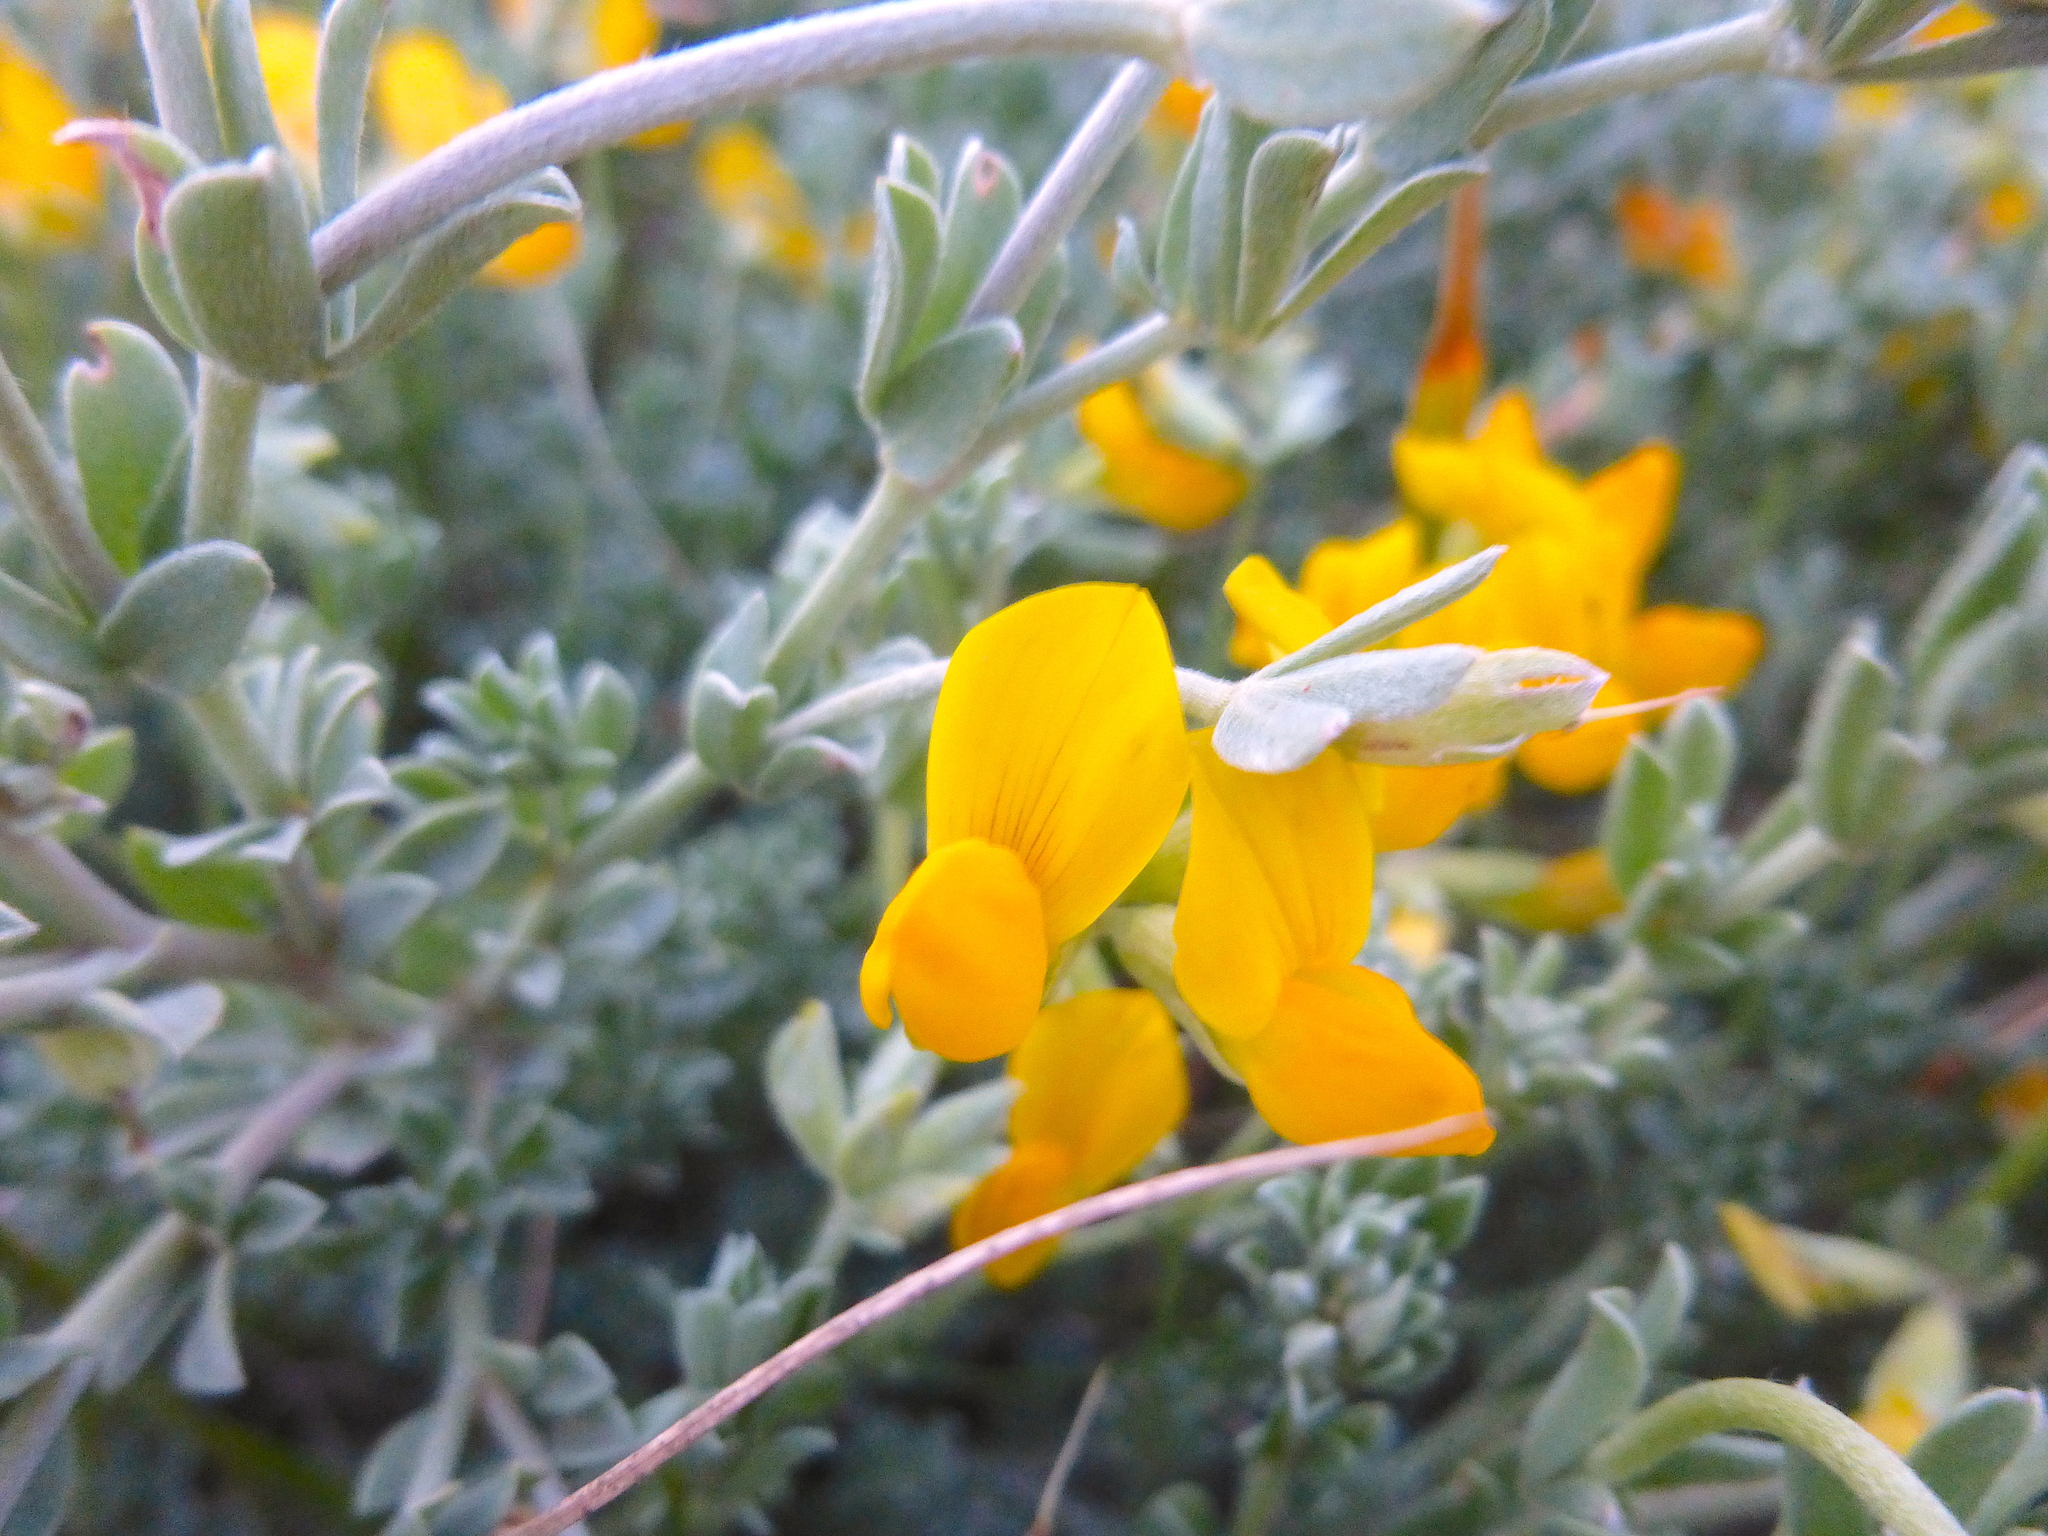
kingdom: Plantae
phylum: Tracheophyta
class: Magnoliopsida
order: Fabales
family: Fabaceae
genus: Lotus
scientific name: Lotus creticus
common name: Cretan bird's-foot trefoil
